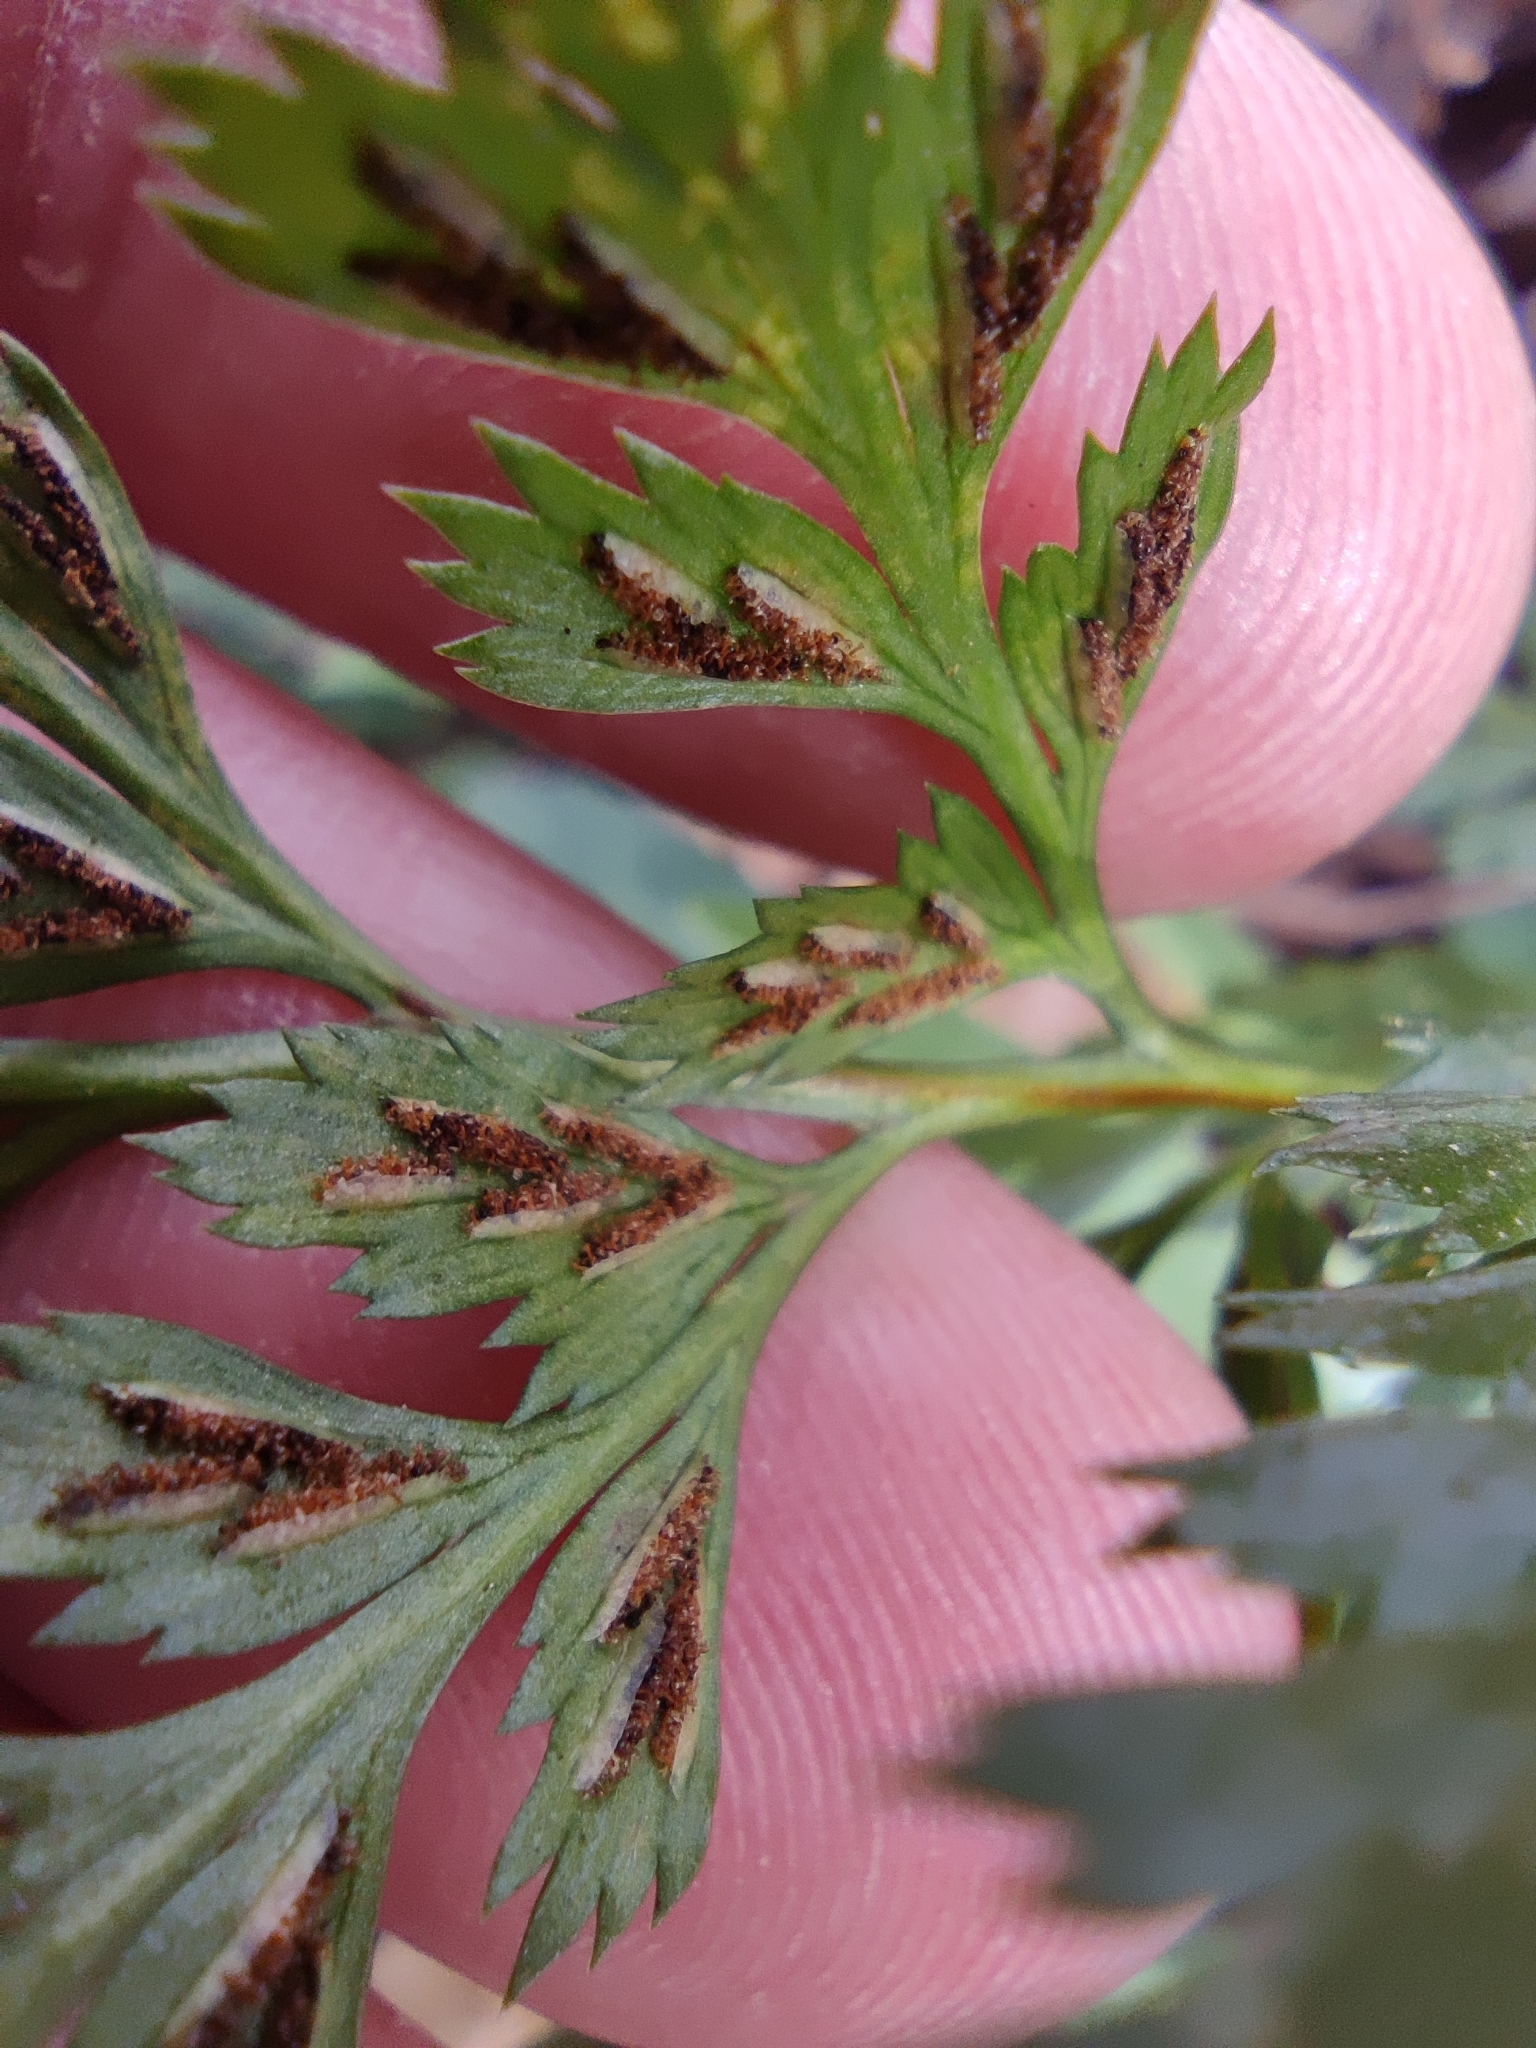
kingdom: Plantae
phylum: Tracheophyta
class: Polypodiopsida
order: Polypodiales
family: Aspleniaceae
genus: Asplenium
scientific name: Asplenium onopteris
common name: Irish spleenwort
